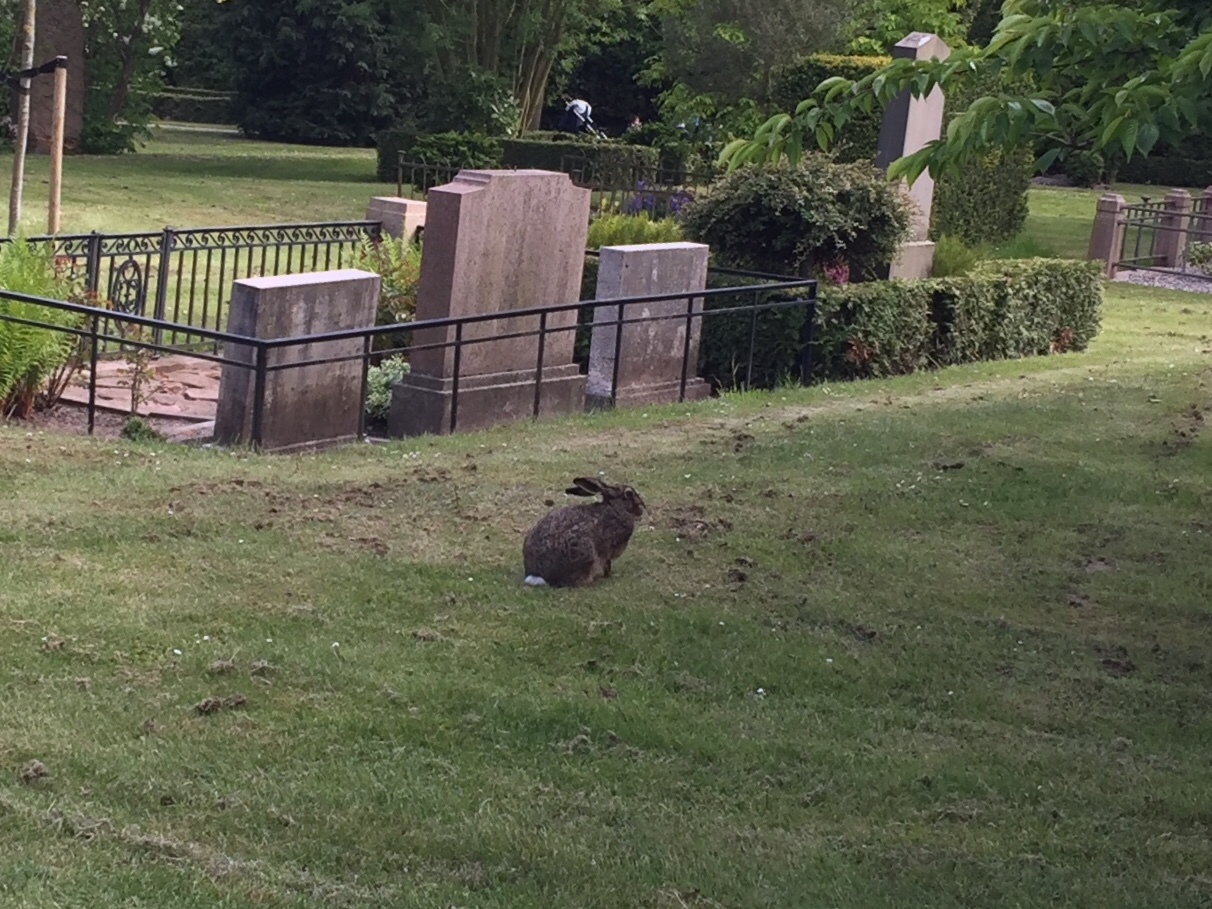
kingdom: Animalia
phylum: Chordata
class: Mammalia
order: Lagomorpha
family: Leporidae
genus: Lepus
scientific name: Lepus europaeus
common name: European hare
